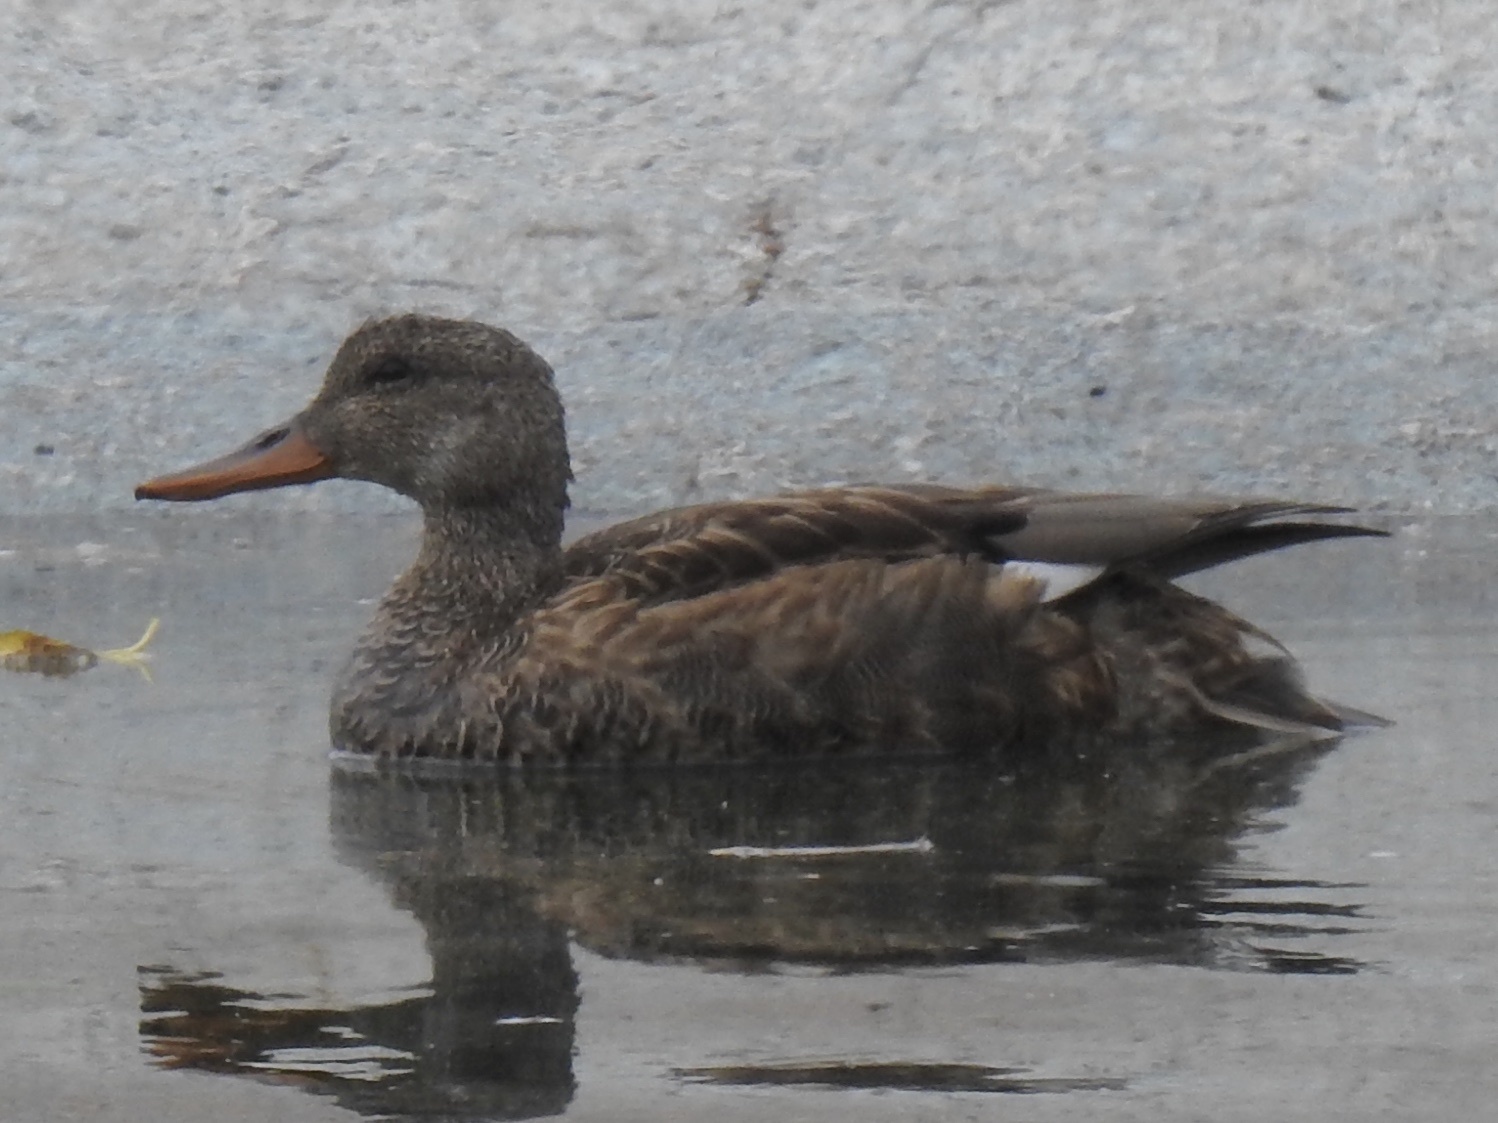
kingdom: Animalia
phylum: Chordata
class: Aves
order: Anseriformes
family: Anatidae
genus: Mareca
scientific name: Mareca strepera
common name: Gadwall
